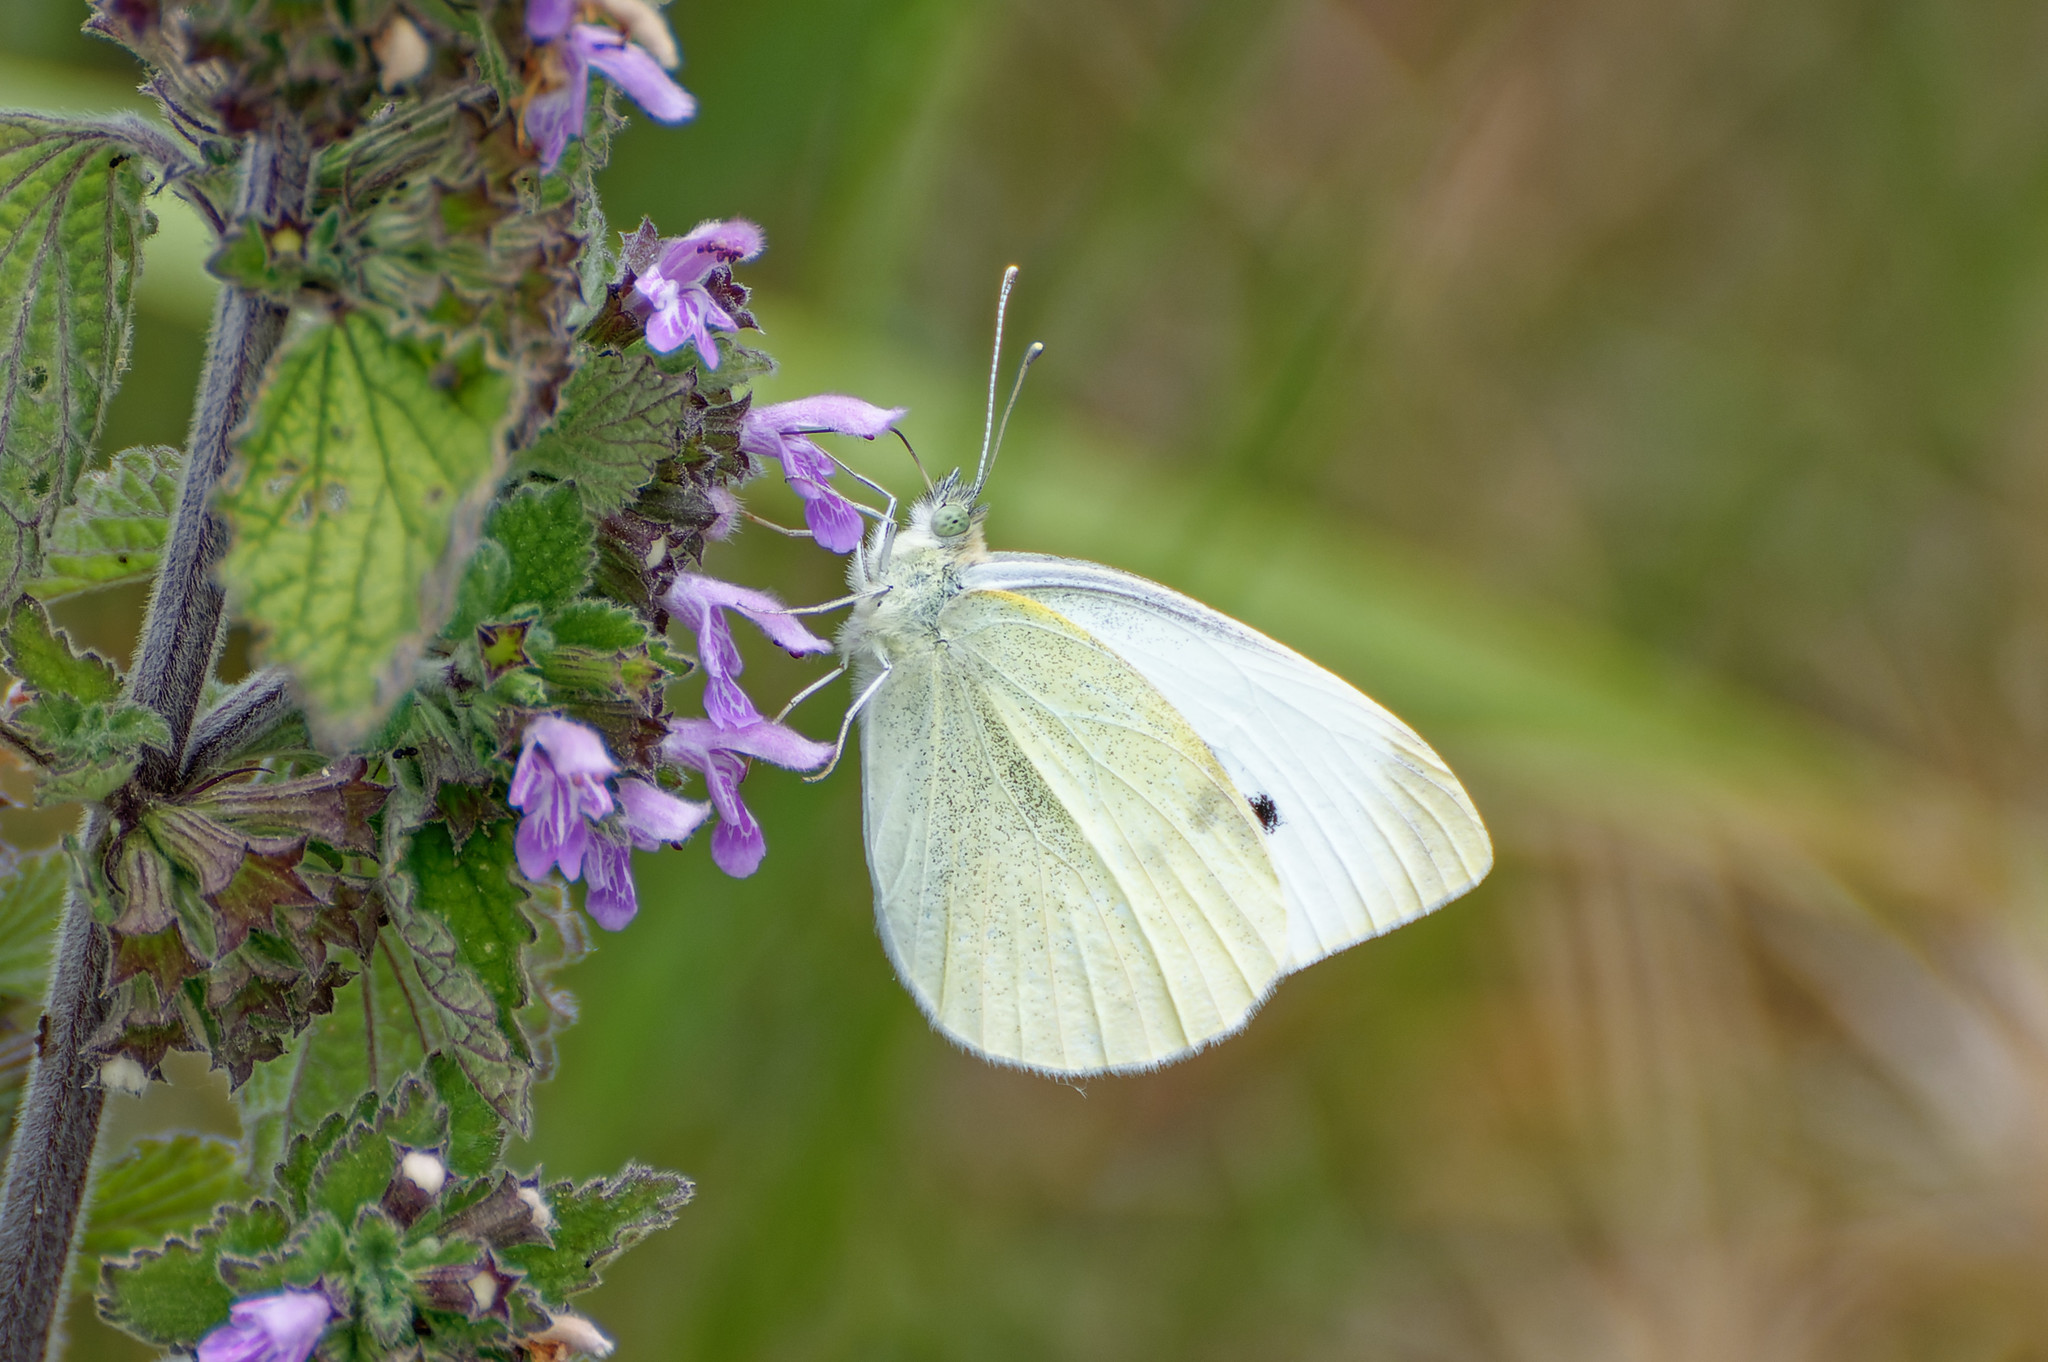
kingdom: Animalia
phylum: Arthropoda
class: Insecta
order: Lepidoptera
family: Pieridae
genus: Pieris
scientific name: Pieris rapae
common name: Small white
